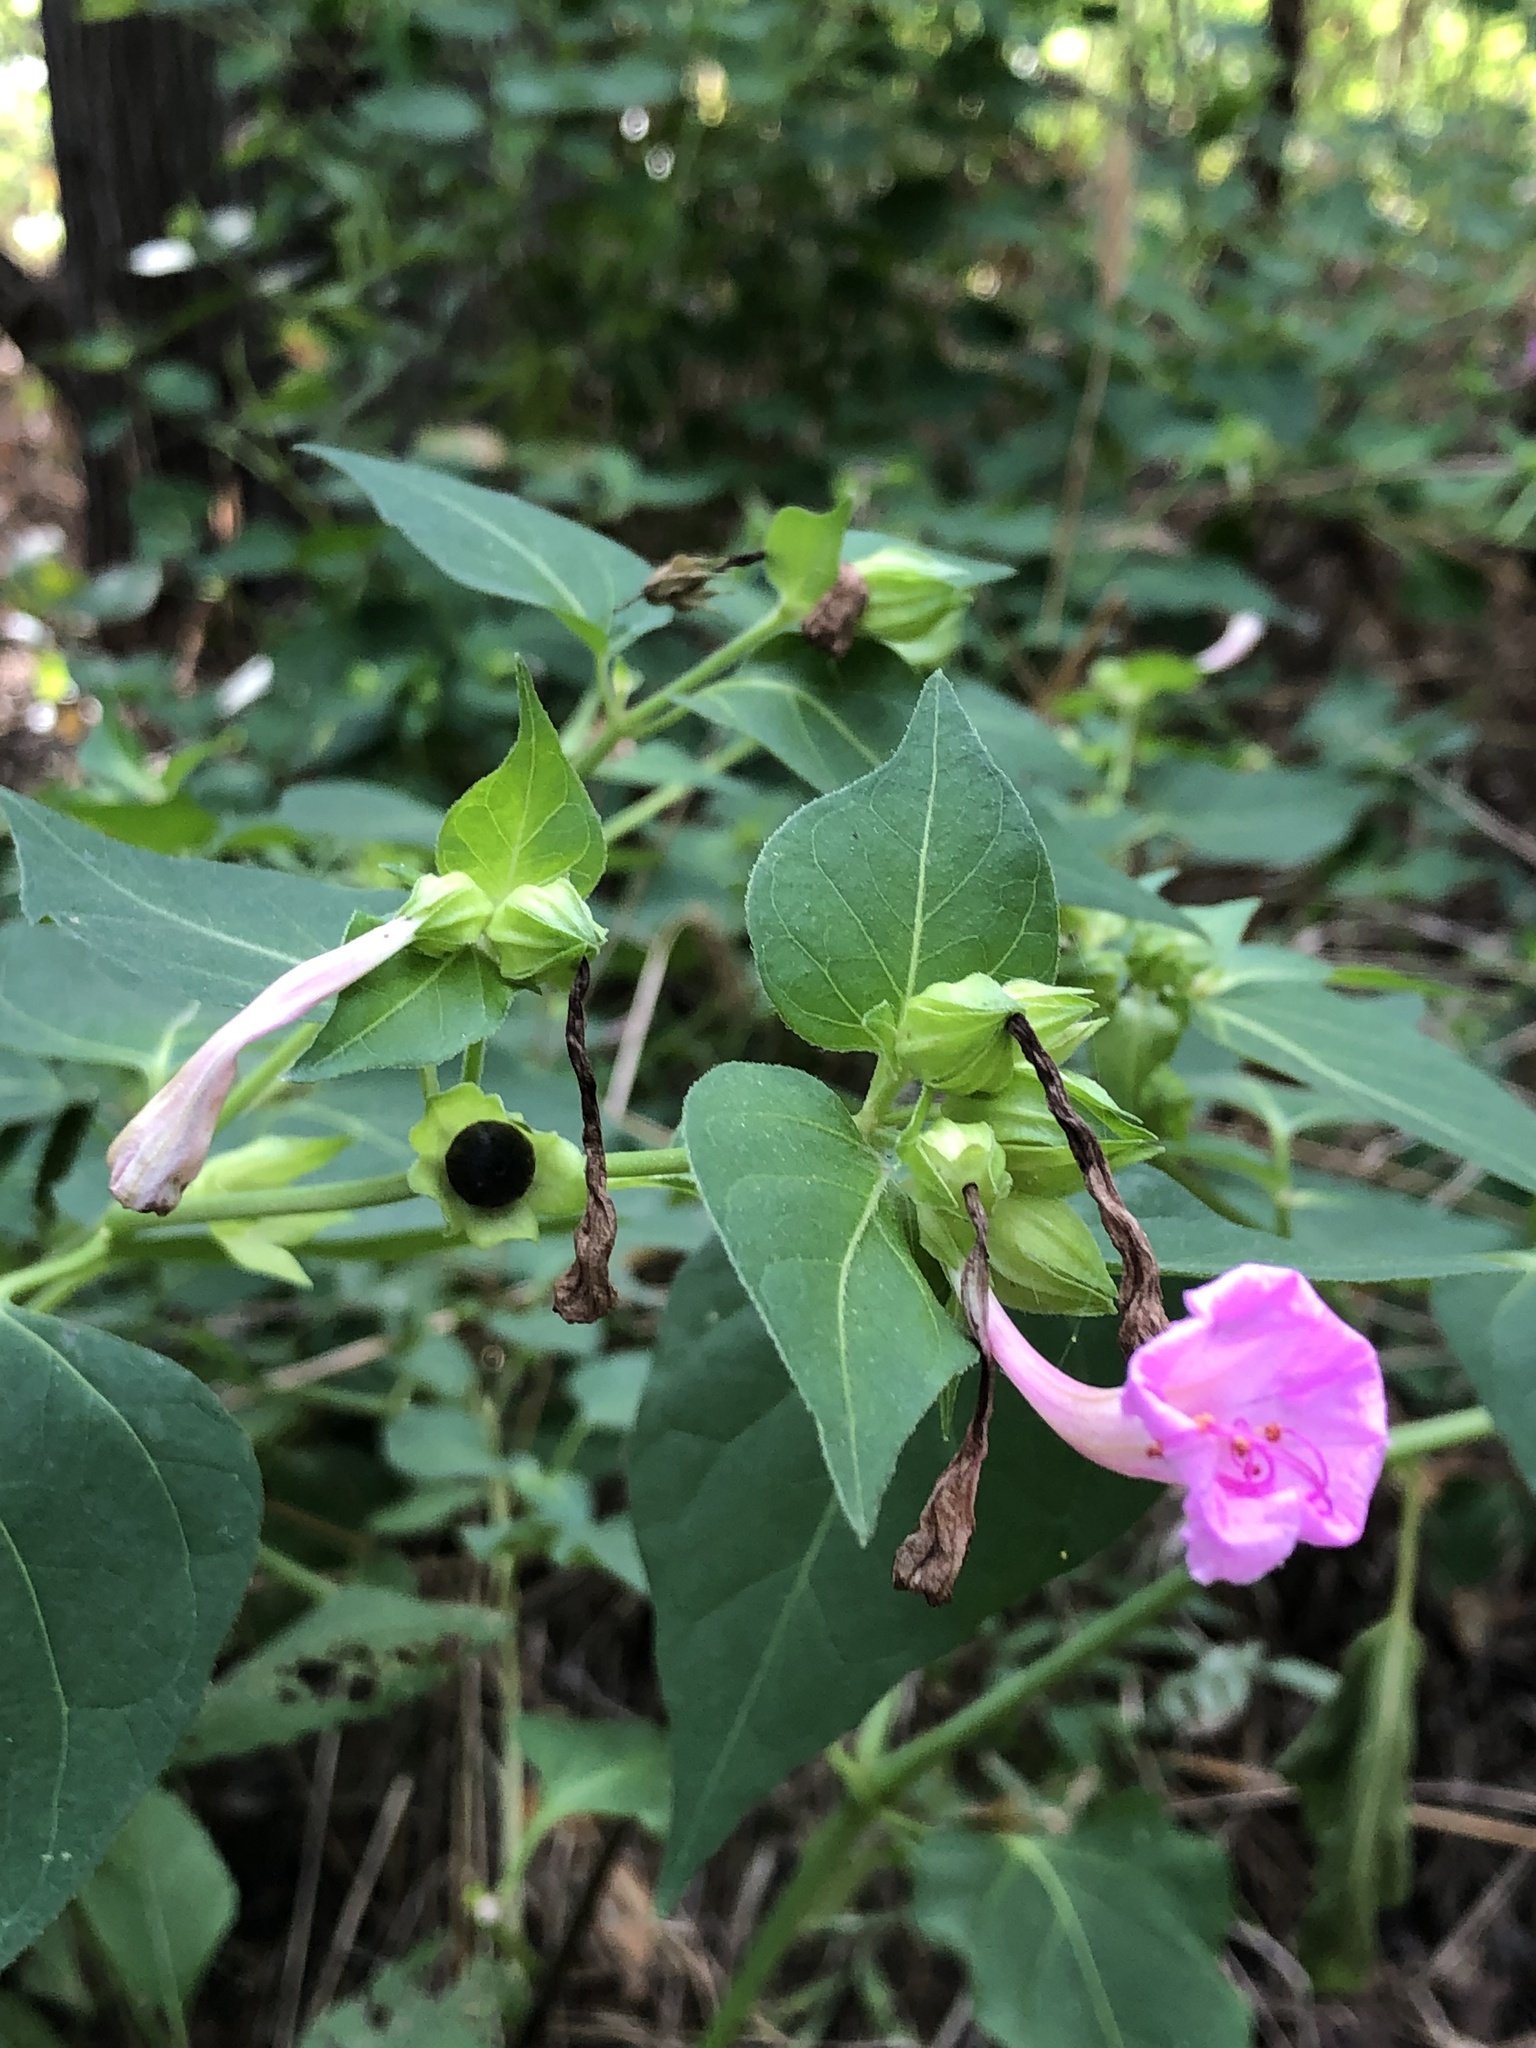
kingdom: Plantae
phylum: Tracheophyta
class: Magnoliopsida
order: Caryophyllales
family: Nyctaginaceae
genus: Mirabilis
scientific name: Mirabilis jalapa
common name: Marvel-of-peru
